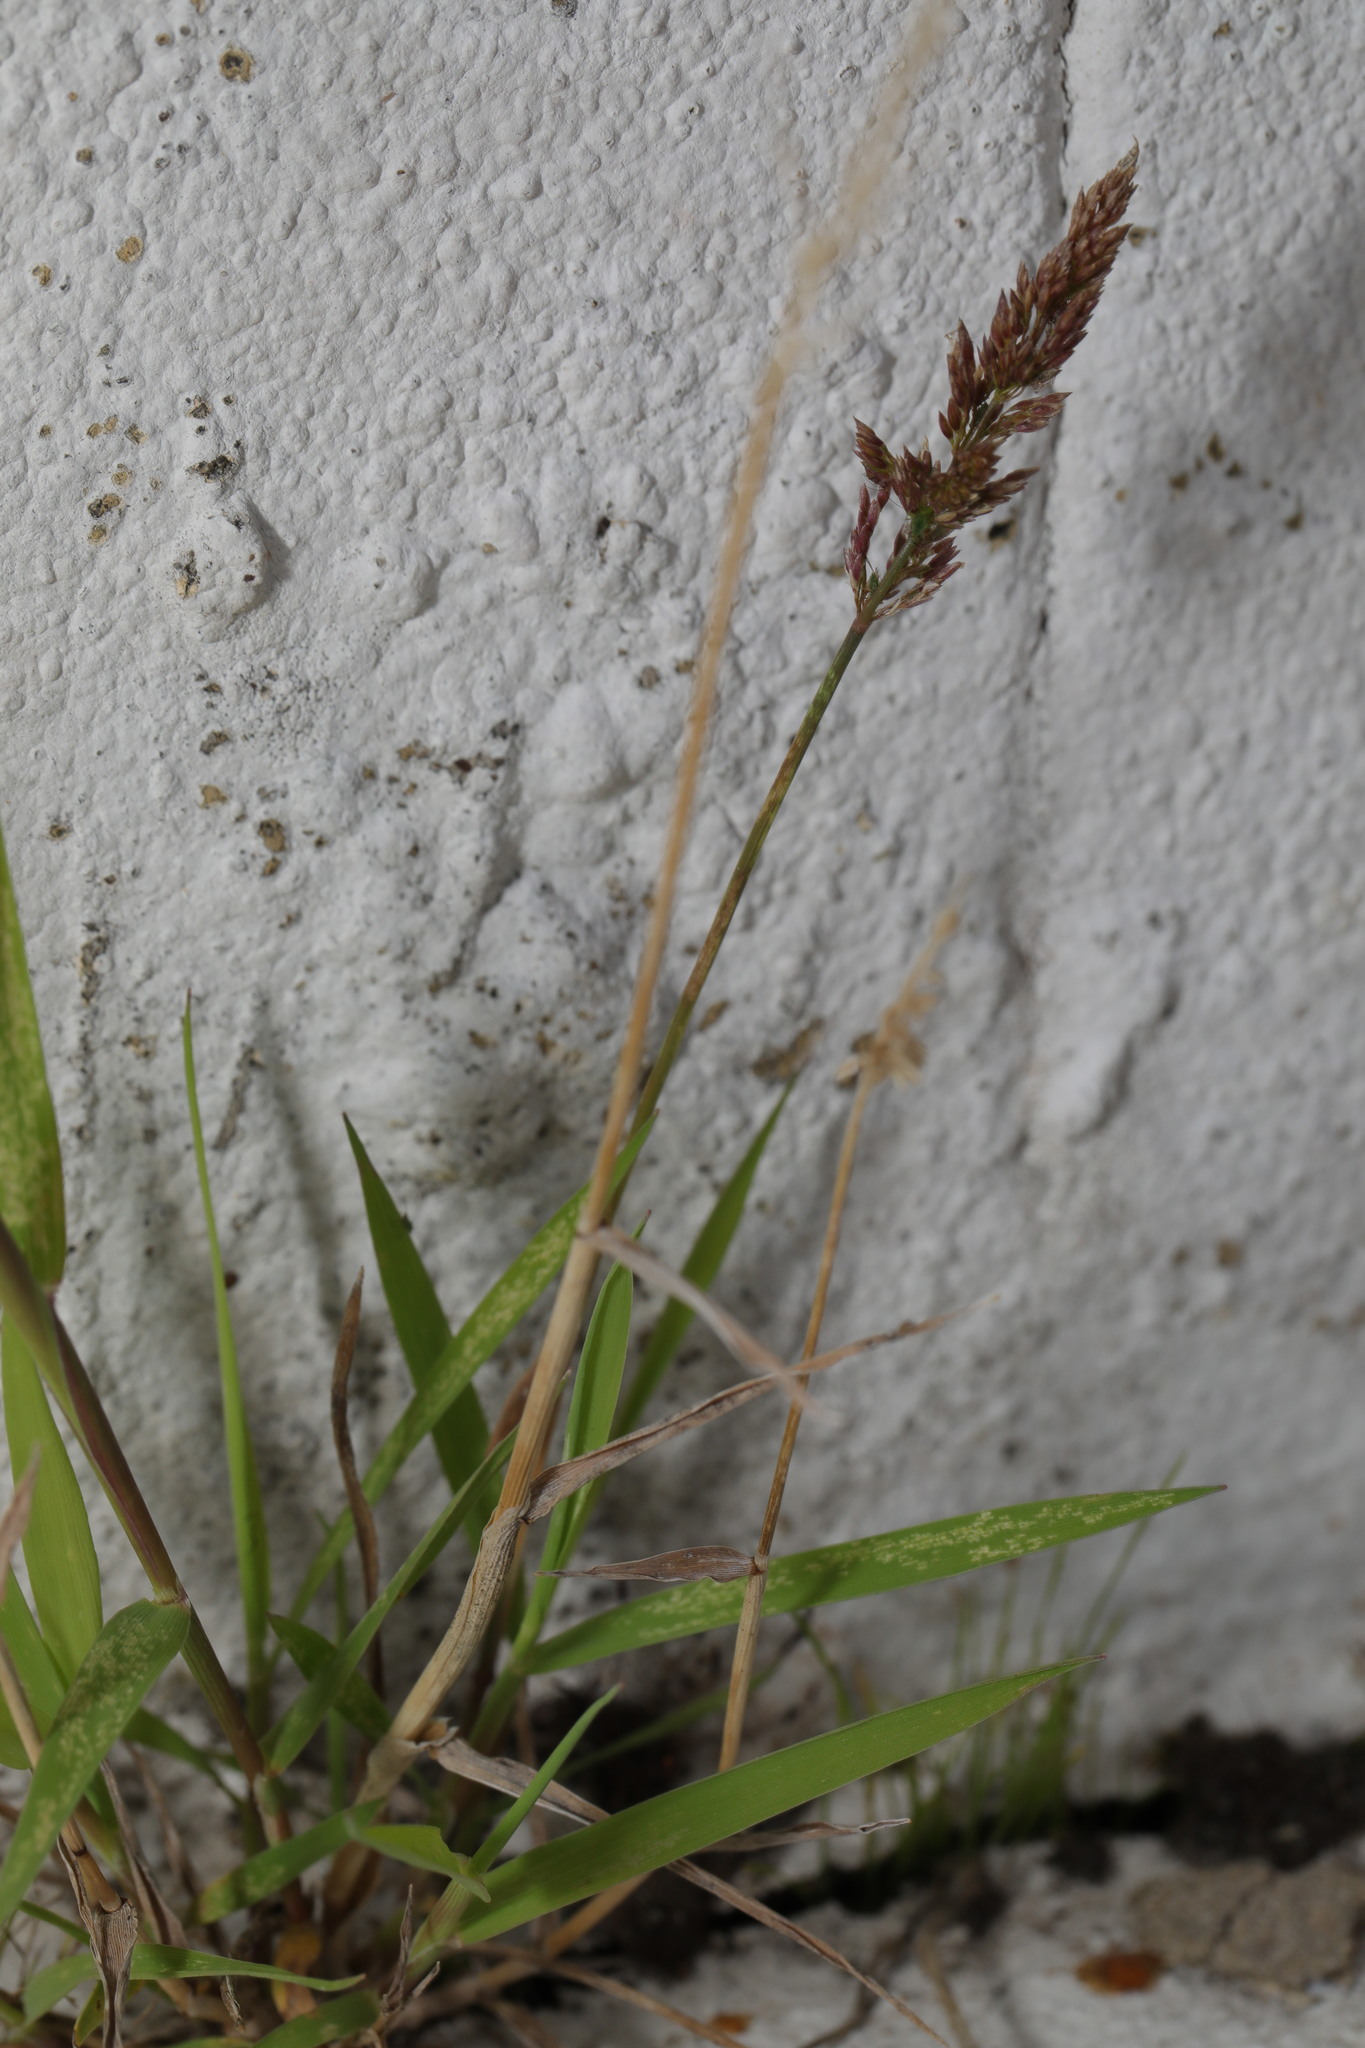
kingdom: Plantae
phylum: Tracheophyta
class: Liliopsida
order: Poales
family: Poaceae
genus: Polypogon
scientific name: Polypogon viridis
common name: Water bent
